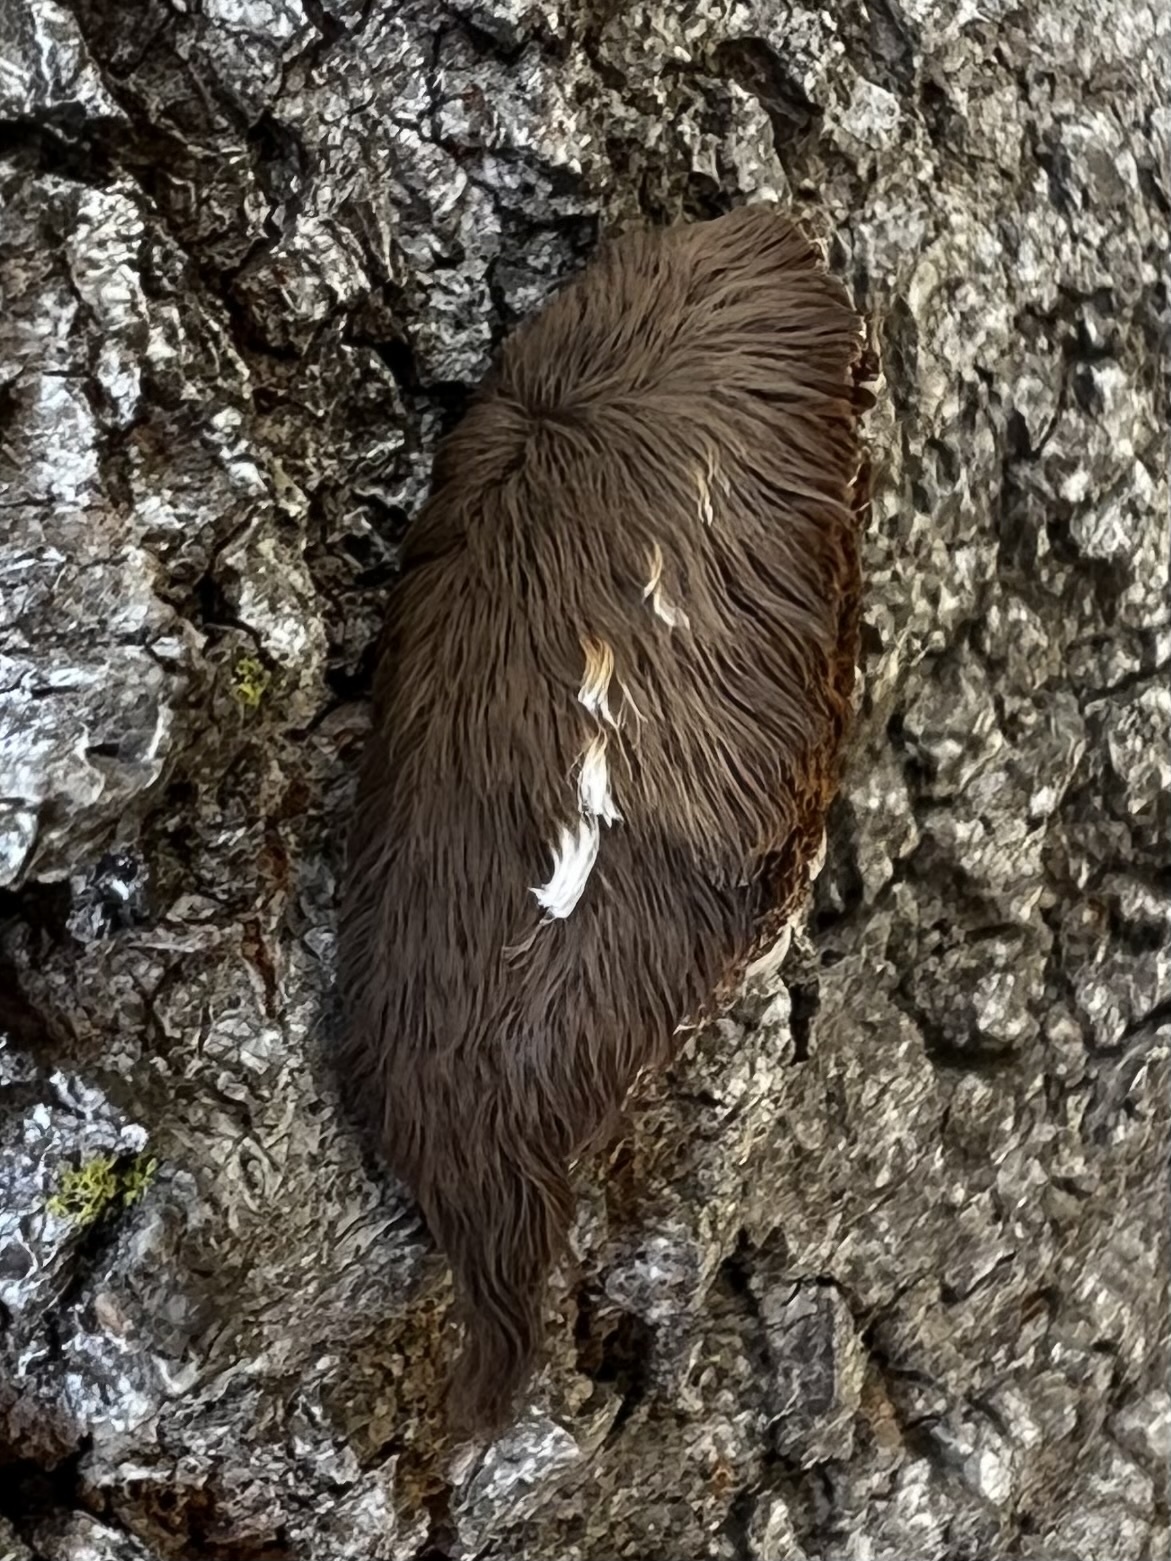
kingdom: Animalia
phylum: Arthropoda
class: Insecta
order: Lepidoptera
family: Megalopygidae
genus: Megalopyge
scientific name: Megalopyge opercularis
